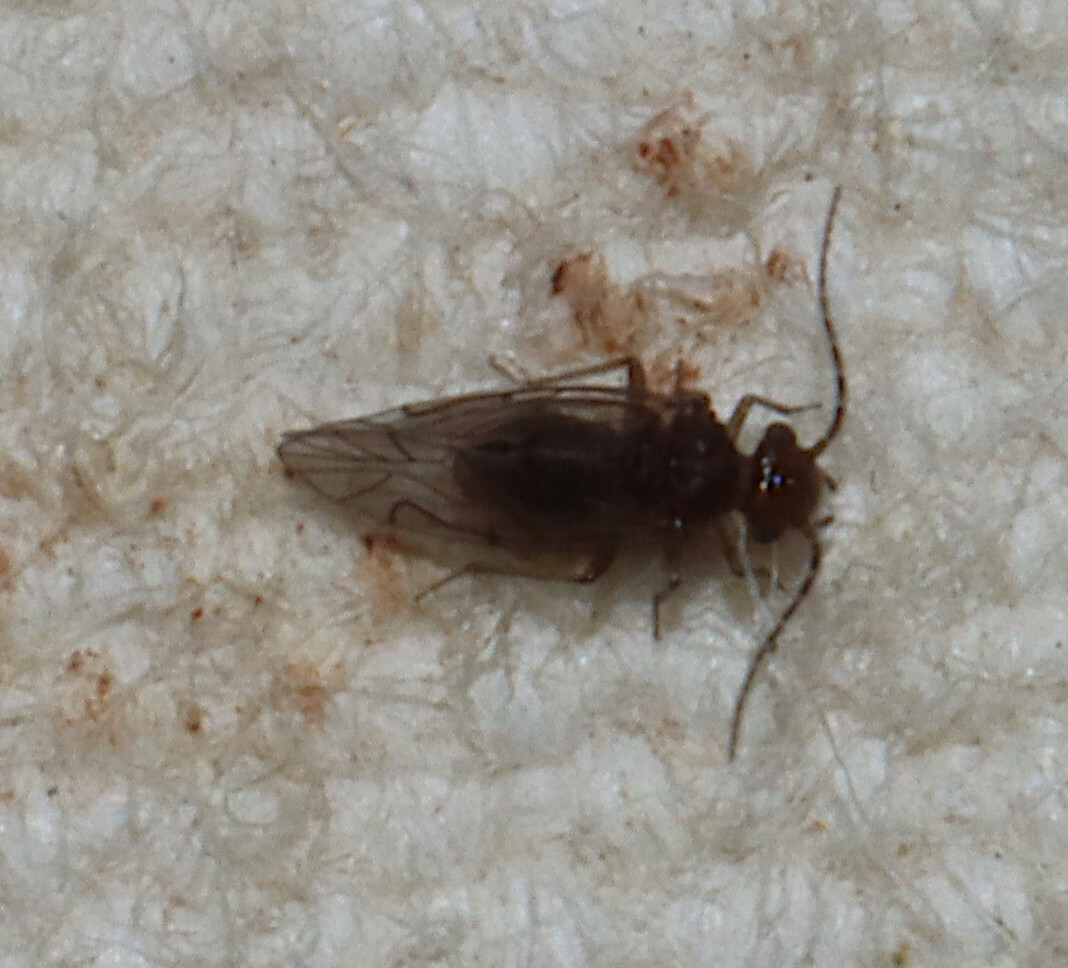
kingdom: Animalia
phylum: Arthropoda
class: Insecta
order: Psocodea
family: Lachesillidae
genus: Anomopsocus
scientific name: Anomopsocus amabilis
